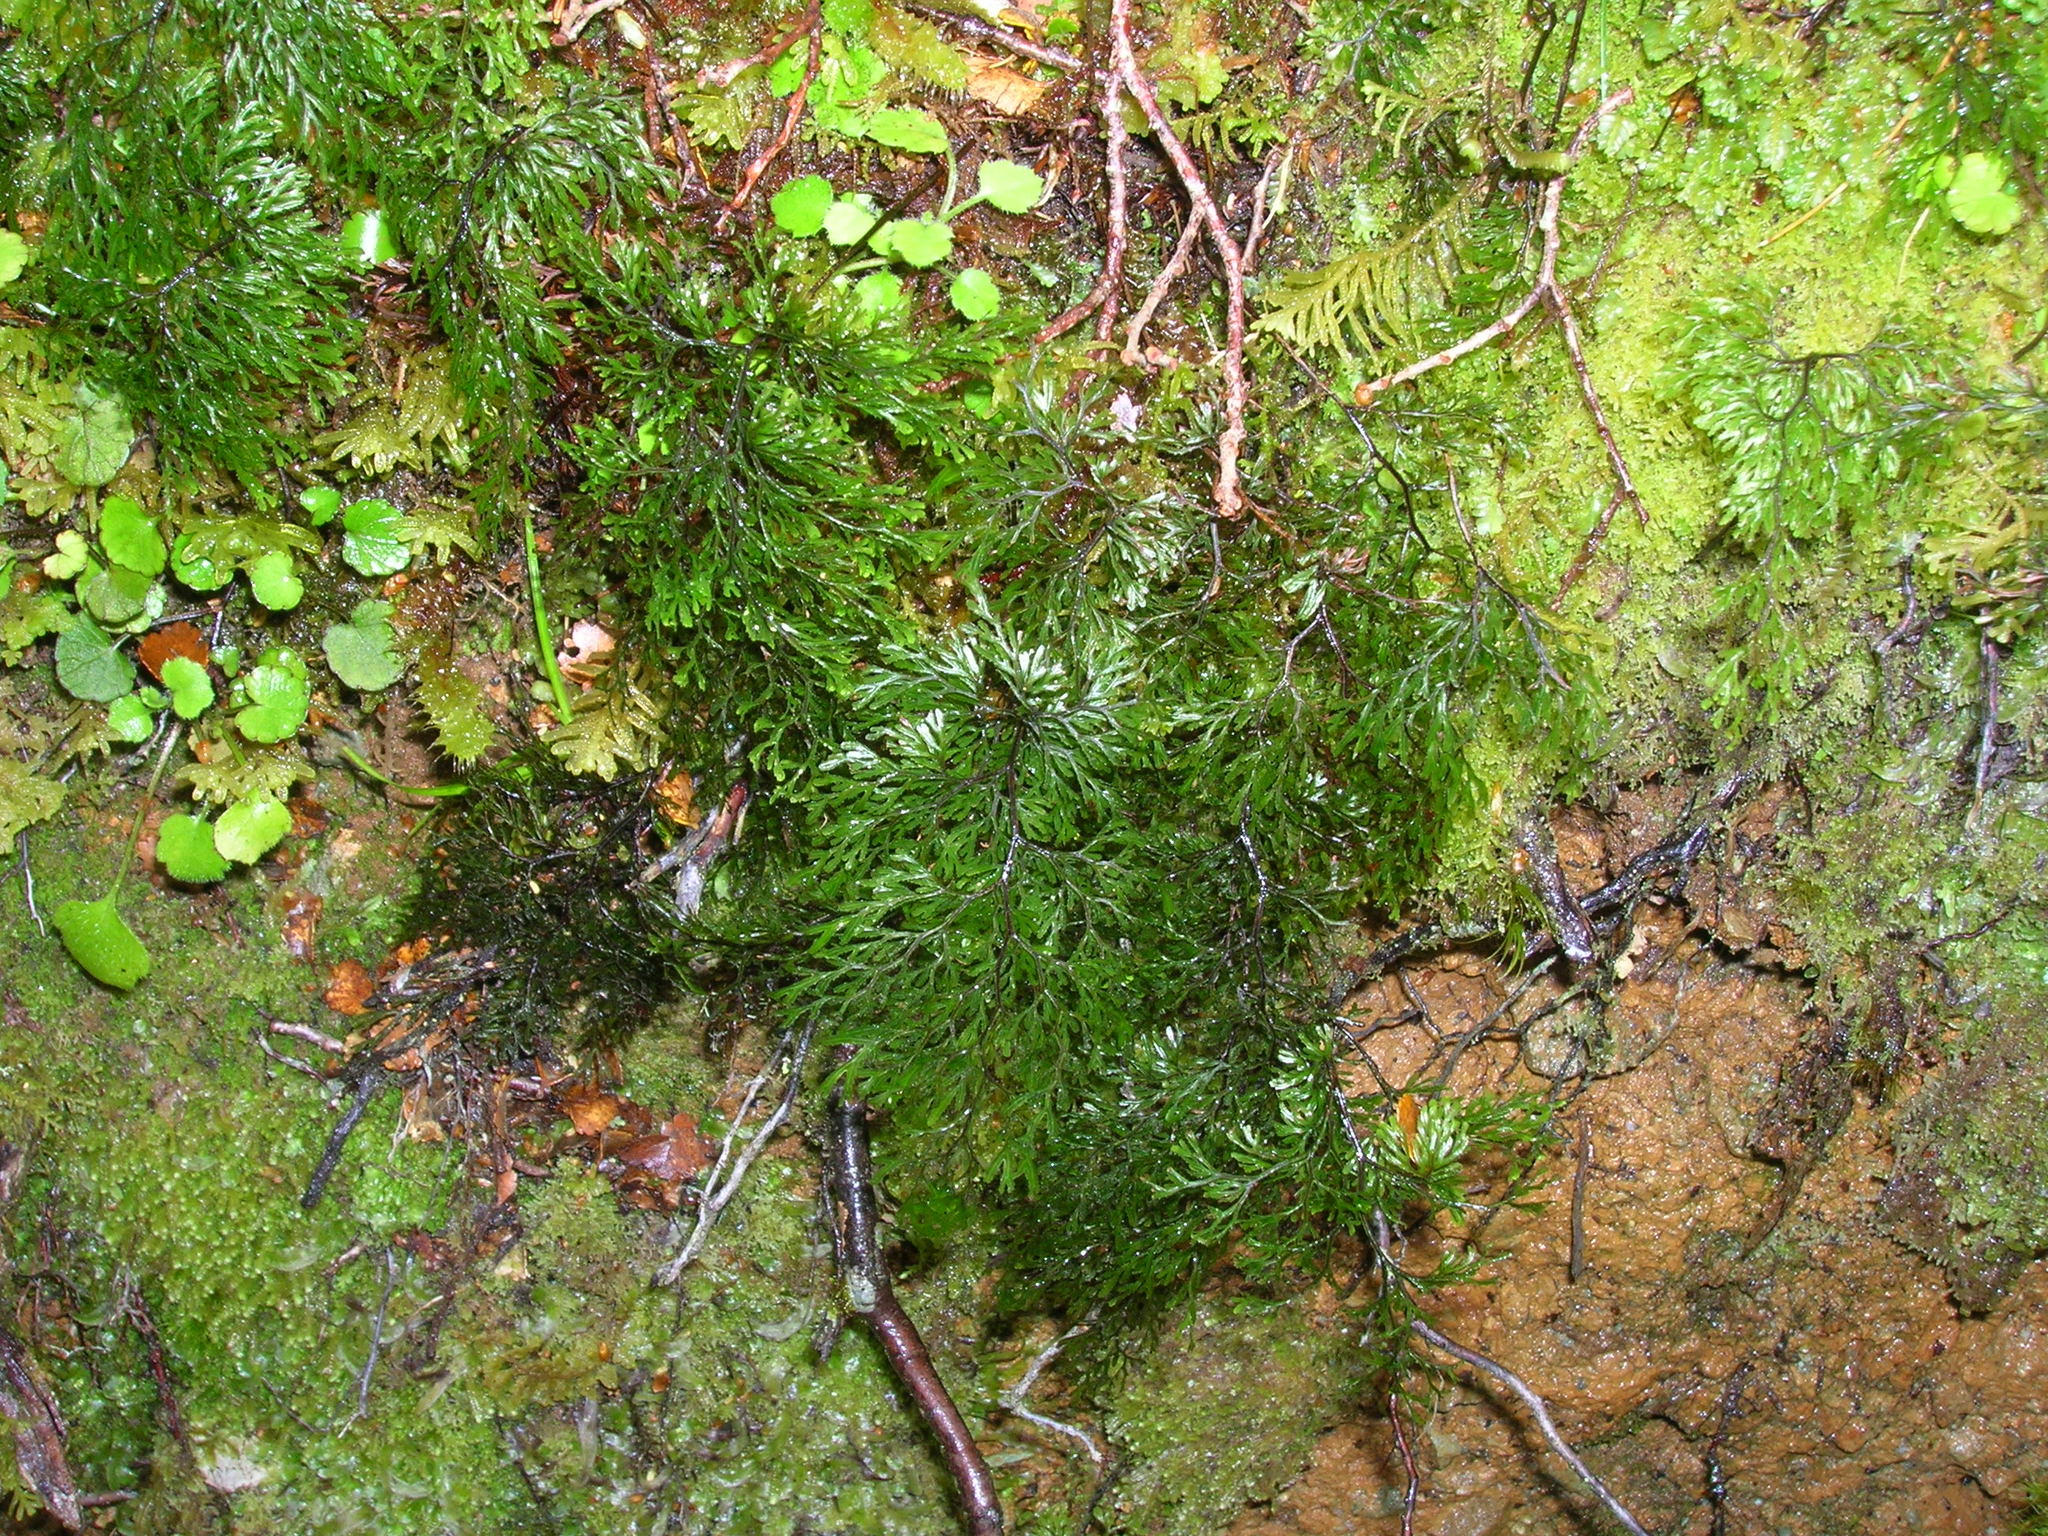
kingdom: Plantae
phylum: Tracheophyta
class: Polypodiopsida
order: Hymenophyllales
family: Hymenophyllaceae
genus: Hymenophyllum
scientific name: Hymenophyllum multifidum
